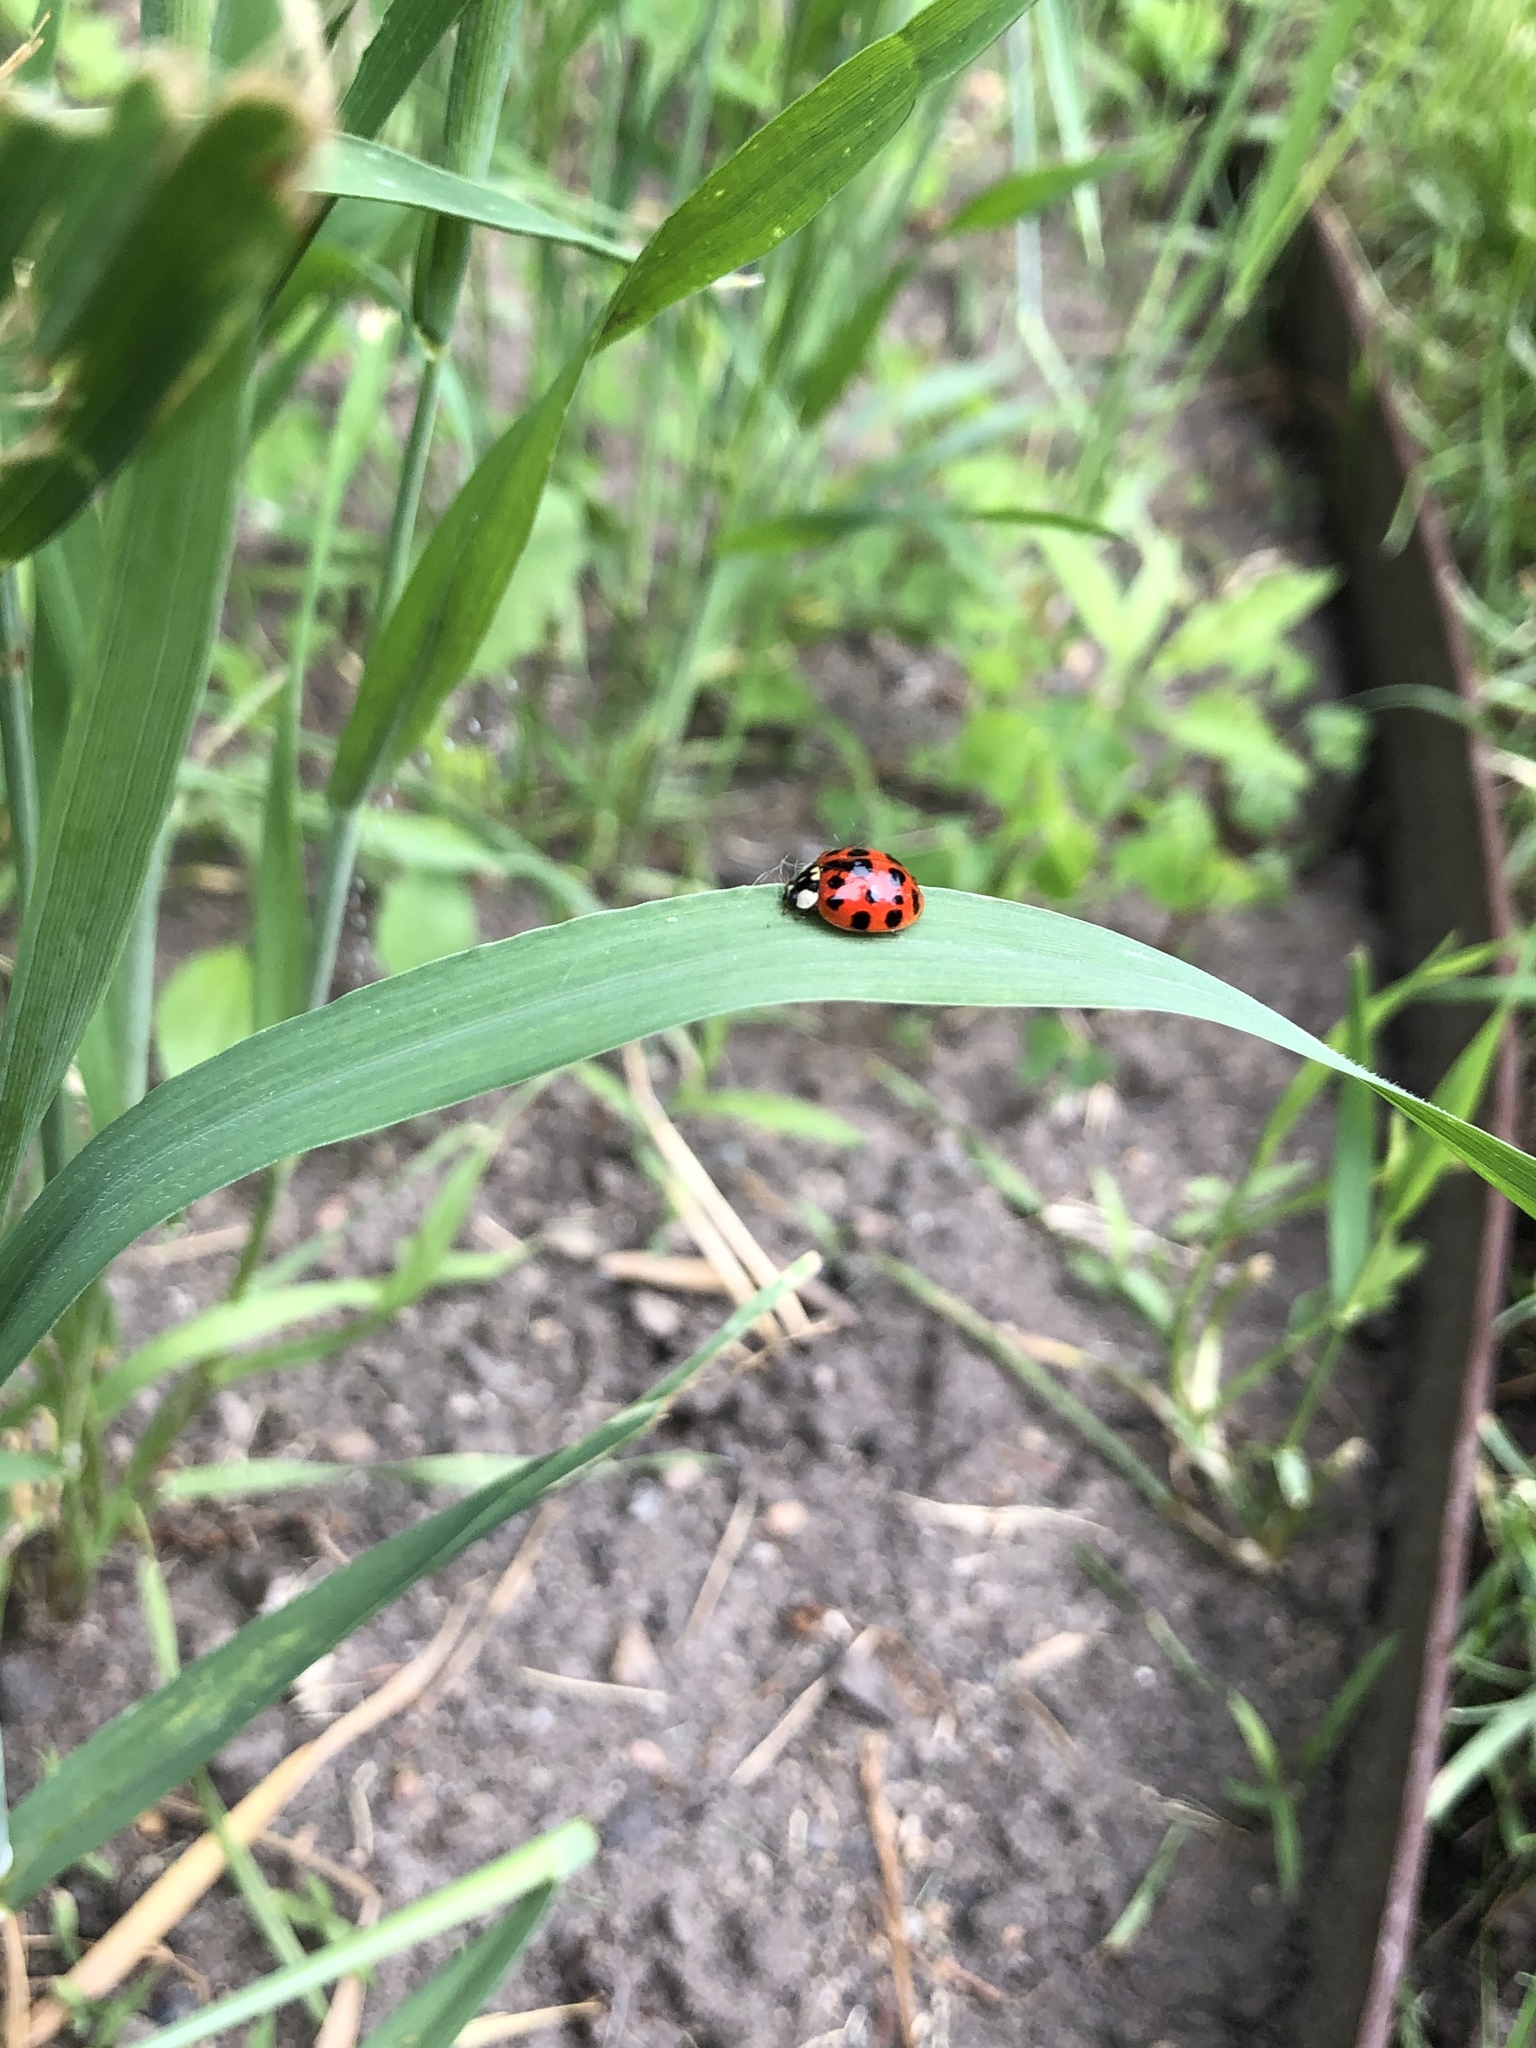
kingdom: Animalia
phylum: Arthropoda
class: Insecta
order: Coleoptera
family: Coccinellidae
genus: Harmonia
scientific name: Harmonia axyridis
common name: Harlequin ladybird
